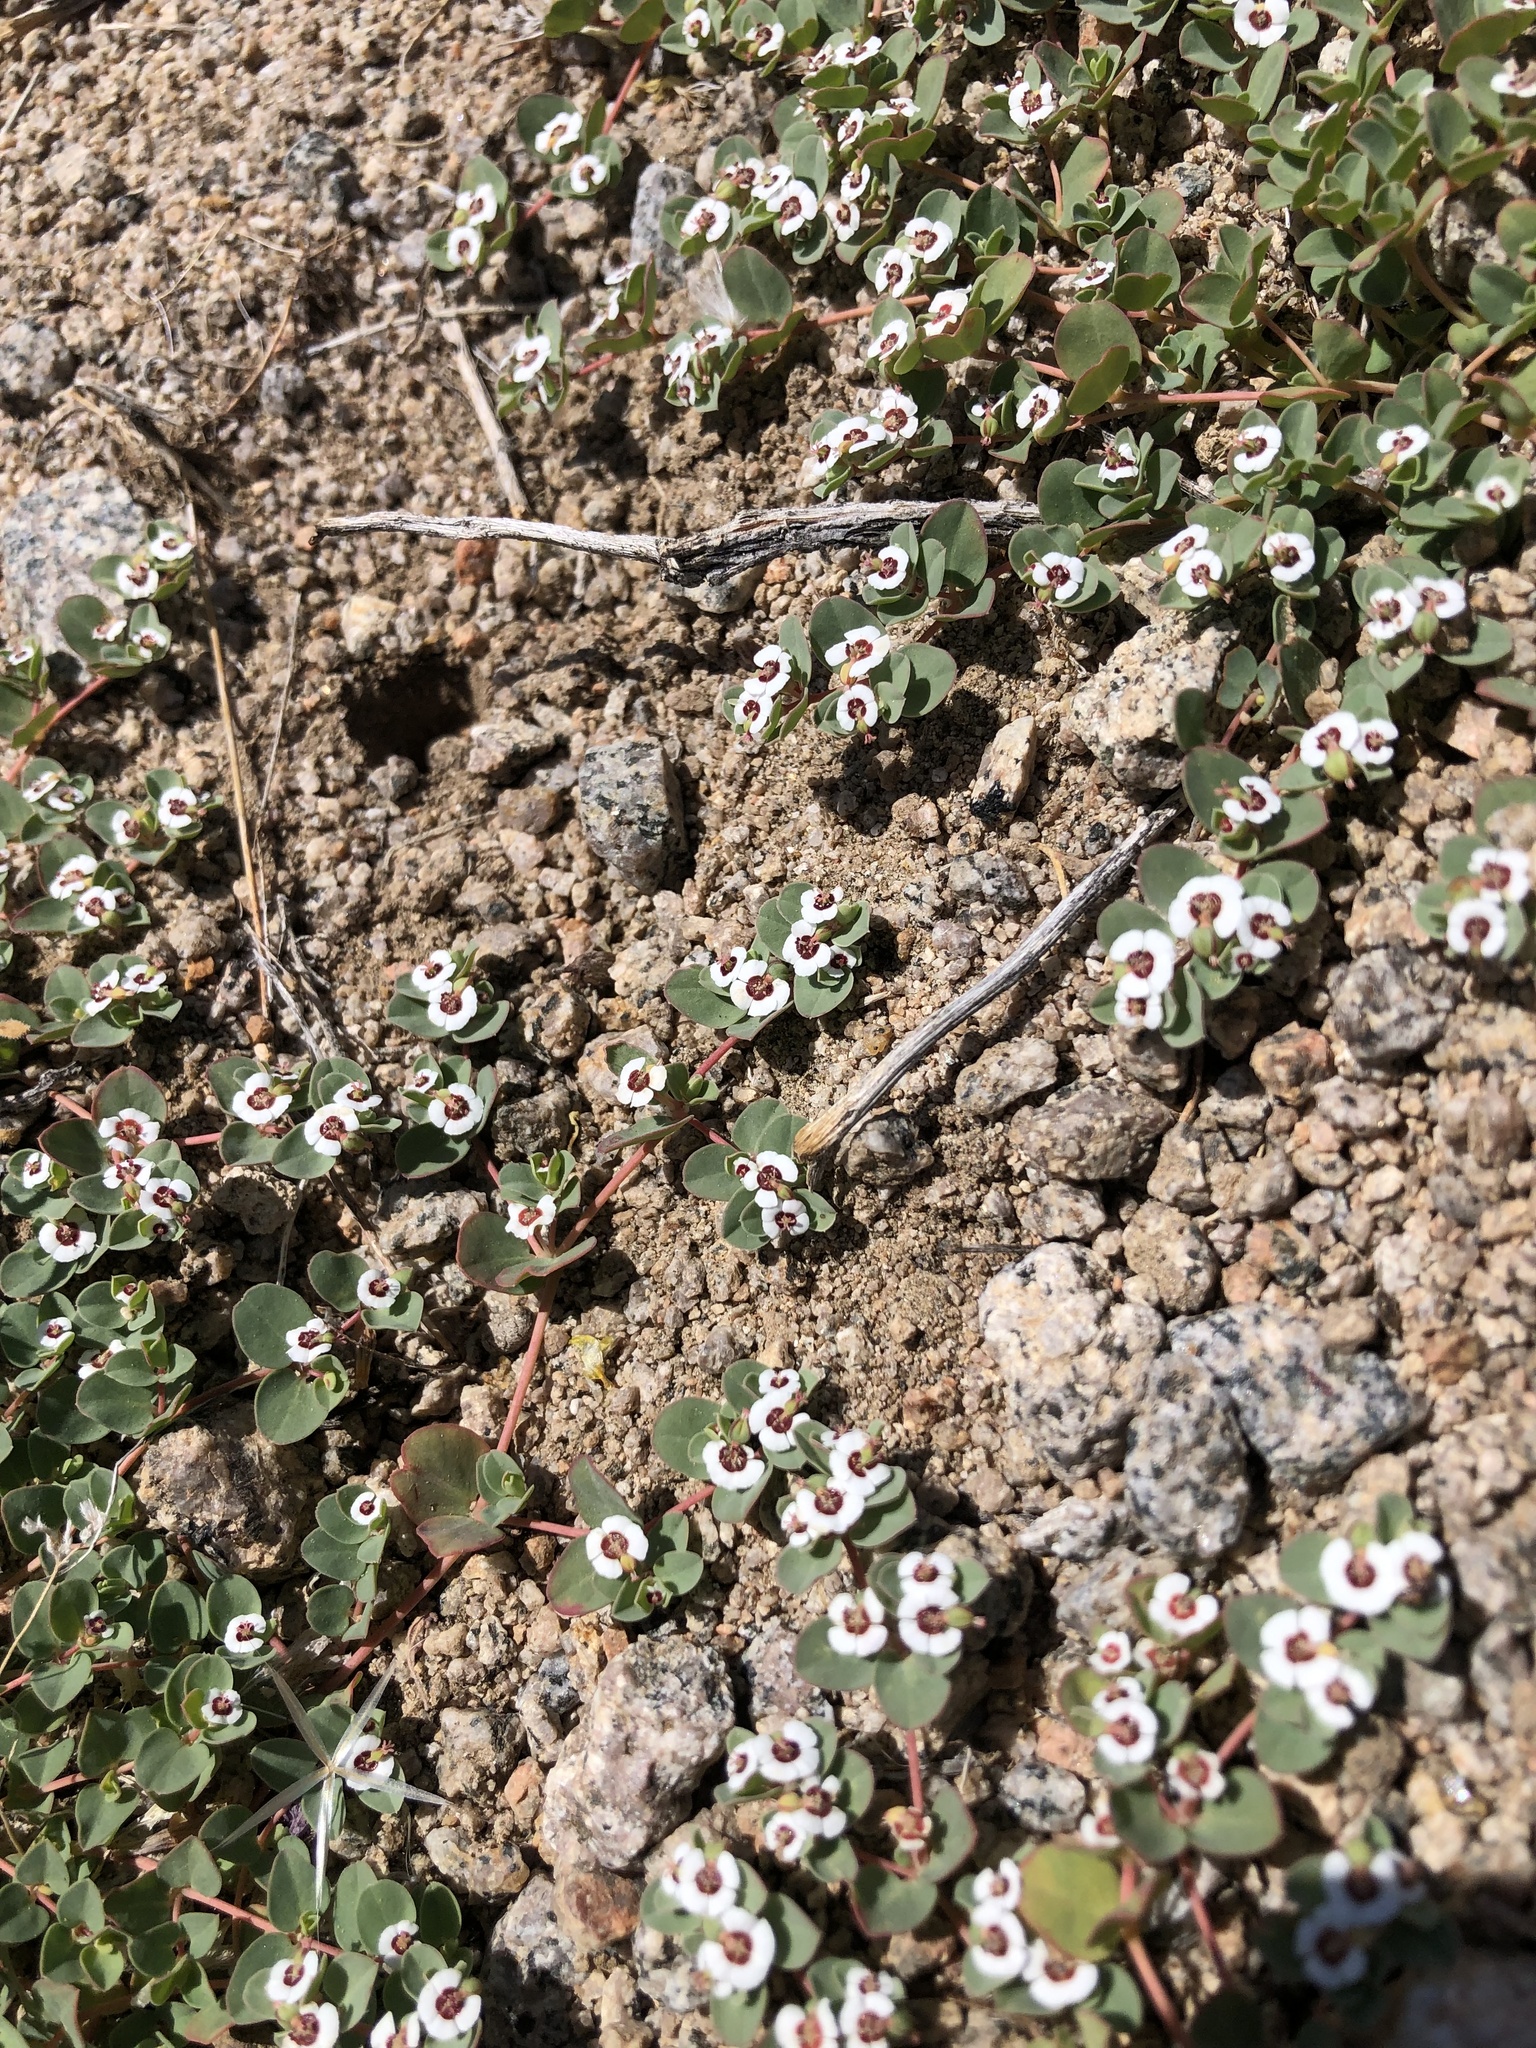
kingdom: Plantae
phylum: Tracheophyta
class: Magnoliopsida
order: Malpighiales
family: Euphorbiaceae
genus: Euphorbia
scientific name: Euphorbia albomarginata
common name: Whitemargin sandmat
